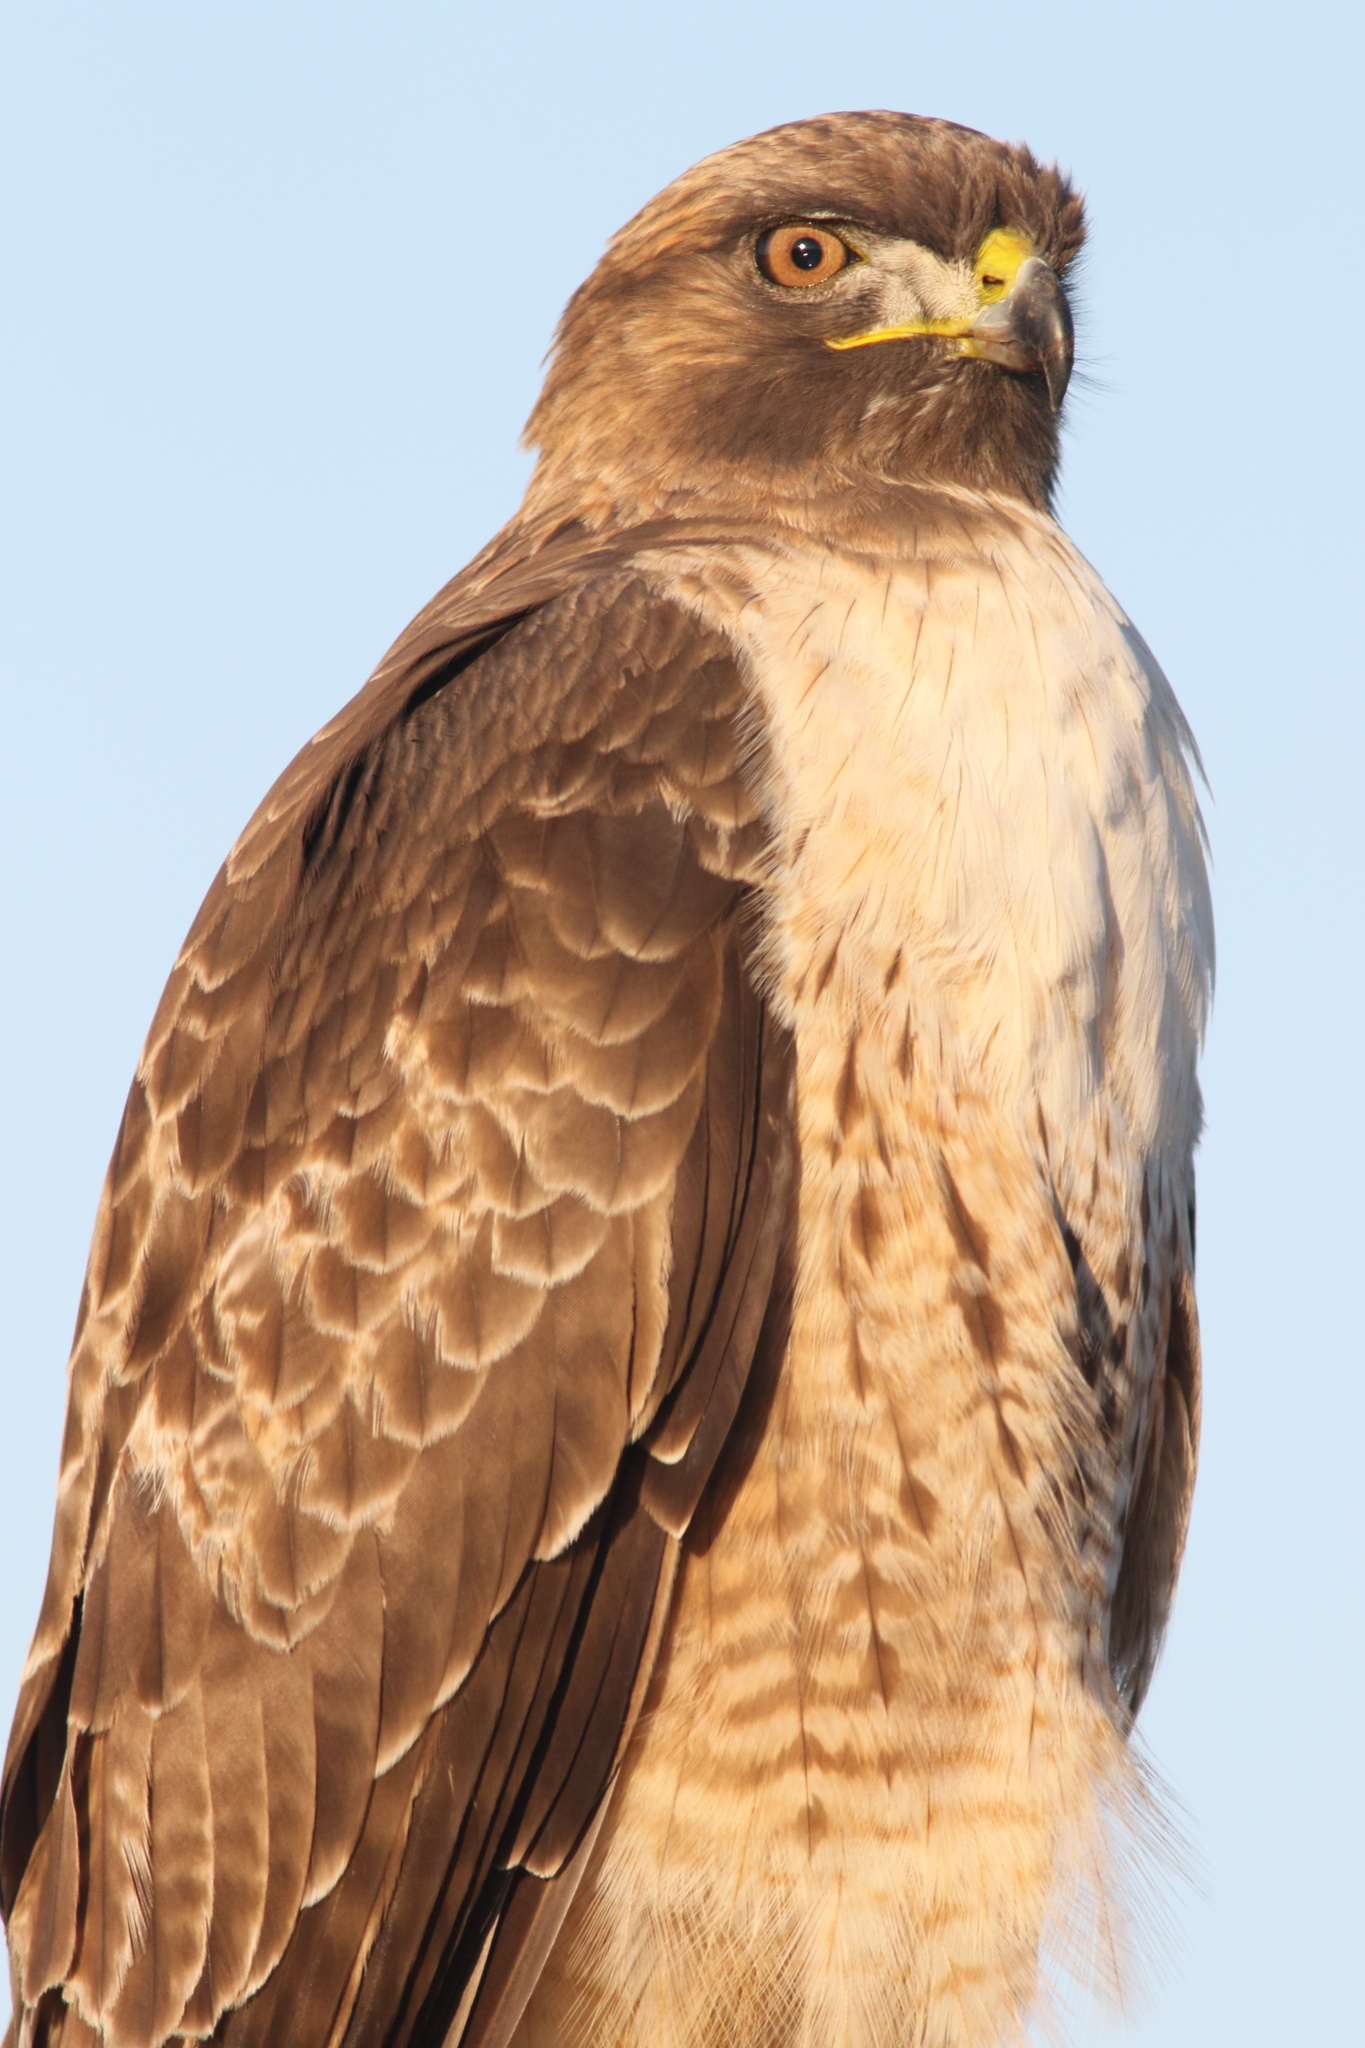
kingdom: Animalia
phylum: Chordata
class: Aves
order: Accipitriformes
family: Accipitridae
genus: Buteo
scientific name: Buteo jamaicensis
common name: Red-tailed hawk
